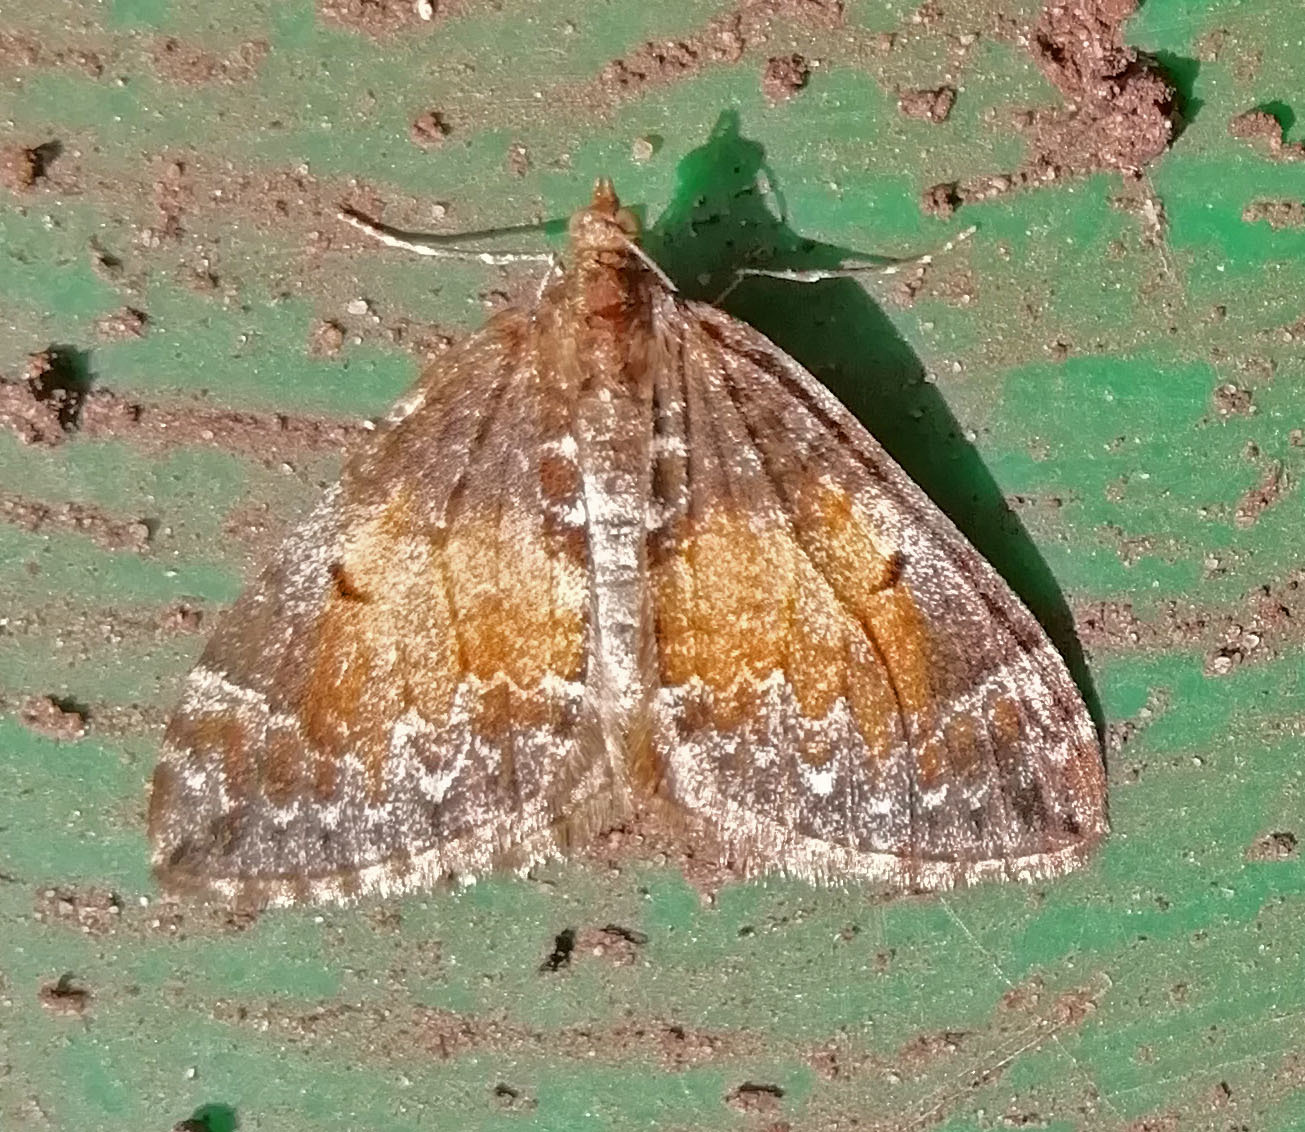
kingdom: Animalia
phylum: Arthropoda
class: Insecta
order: Lepidoptera
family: Geometridae
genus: Dysstroma
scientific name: Dysstroma truncata
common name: Common marbled carpet
